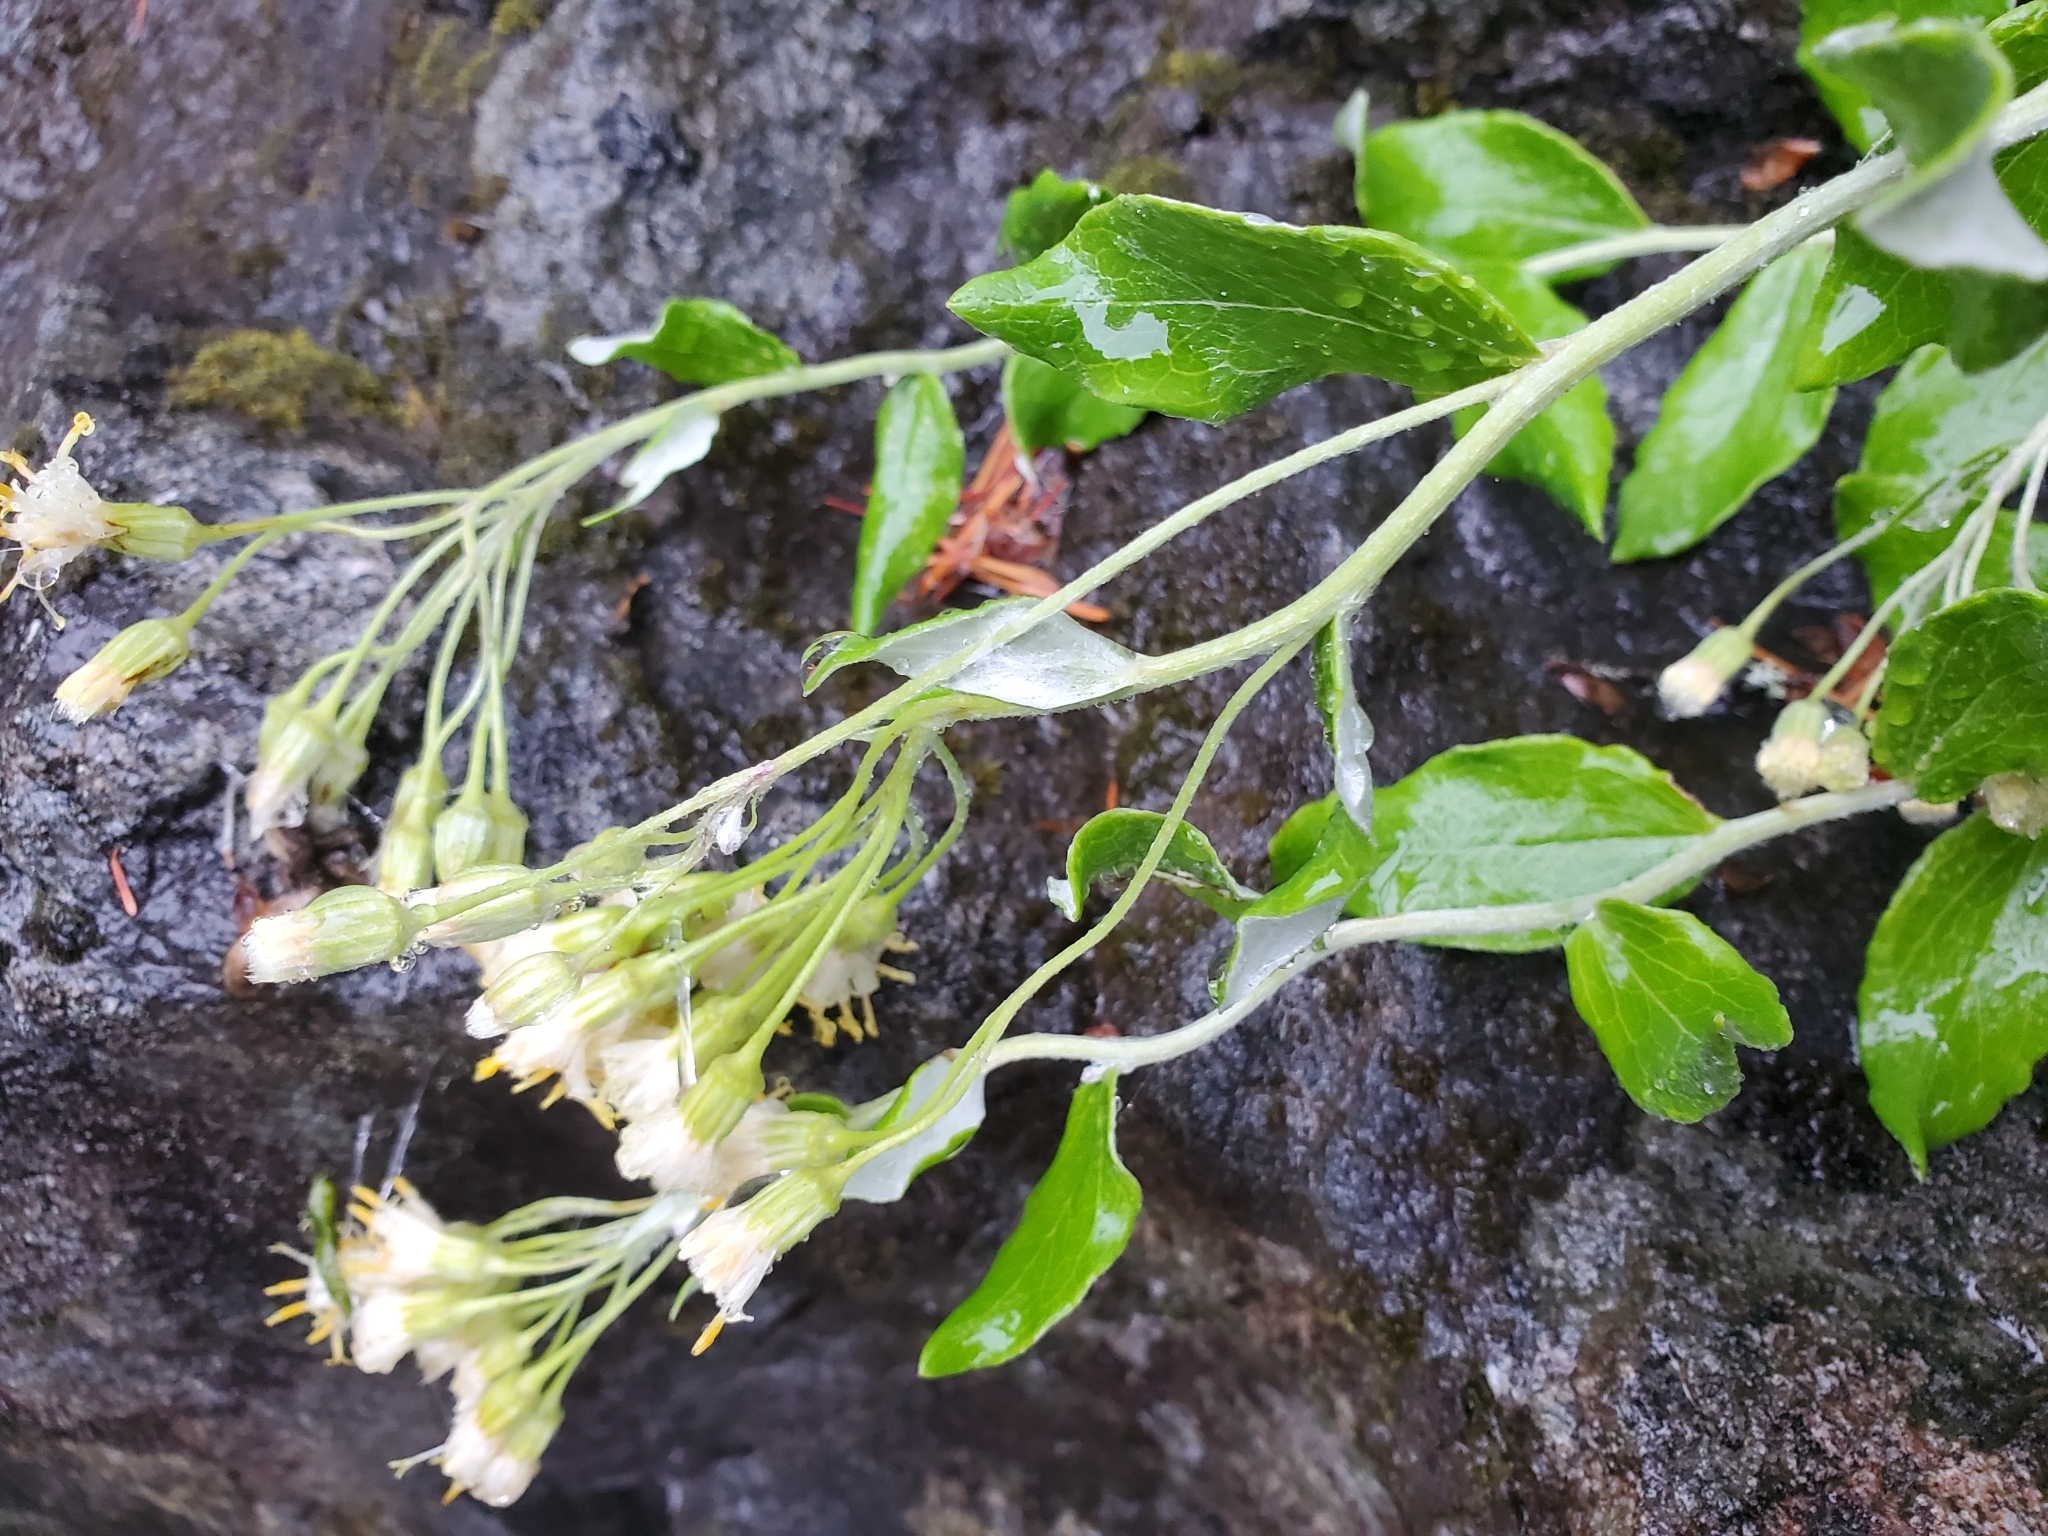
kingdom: Plantae
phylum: Tracheophyta
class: Magnoliopsida
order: Asterales
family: Asteraceae
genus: Luina
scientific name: Luina hypoleuca
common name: Little-leaved luina
